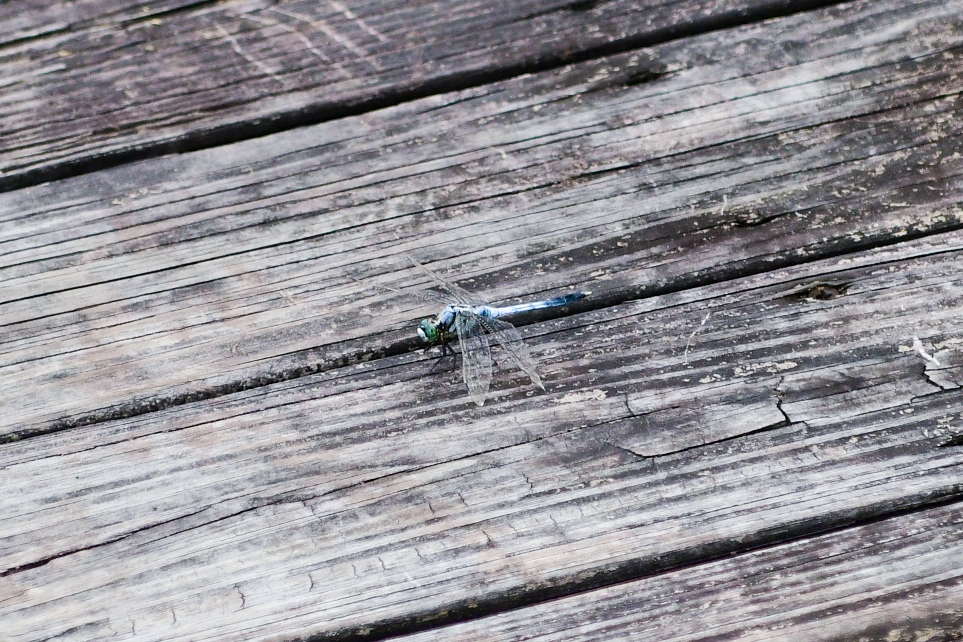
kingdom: Animalia
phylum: Arthropoda
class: Insecta
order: Odonata
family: Libellulidae
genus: Orthetrum
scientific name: Orthetrum albistylum
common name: White-tailed skimmer
